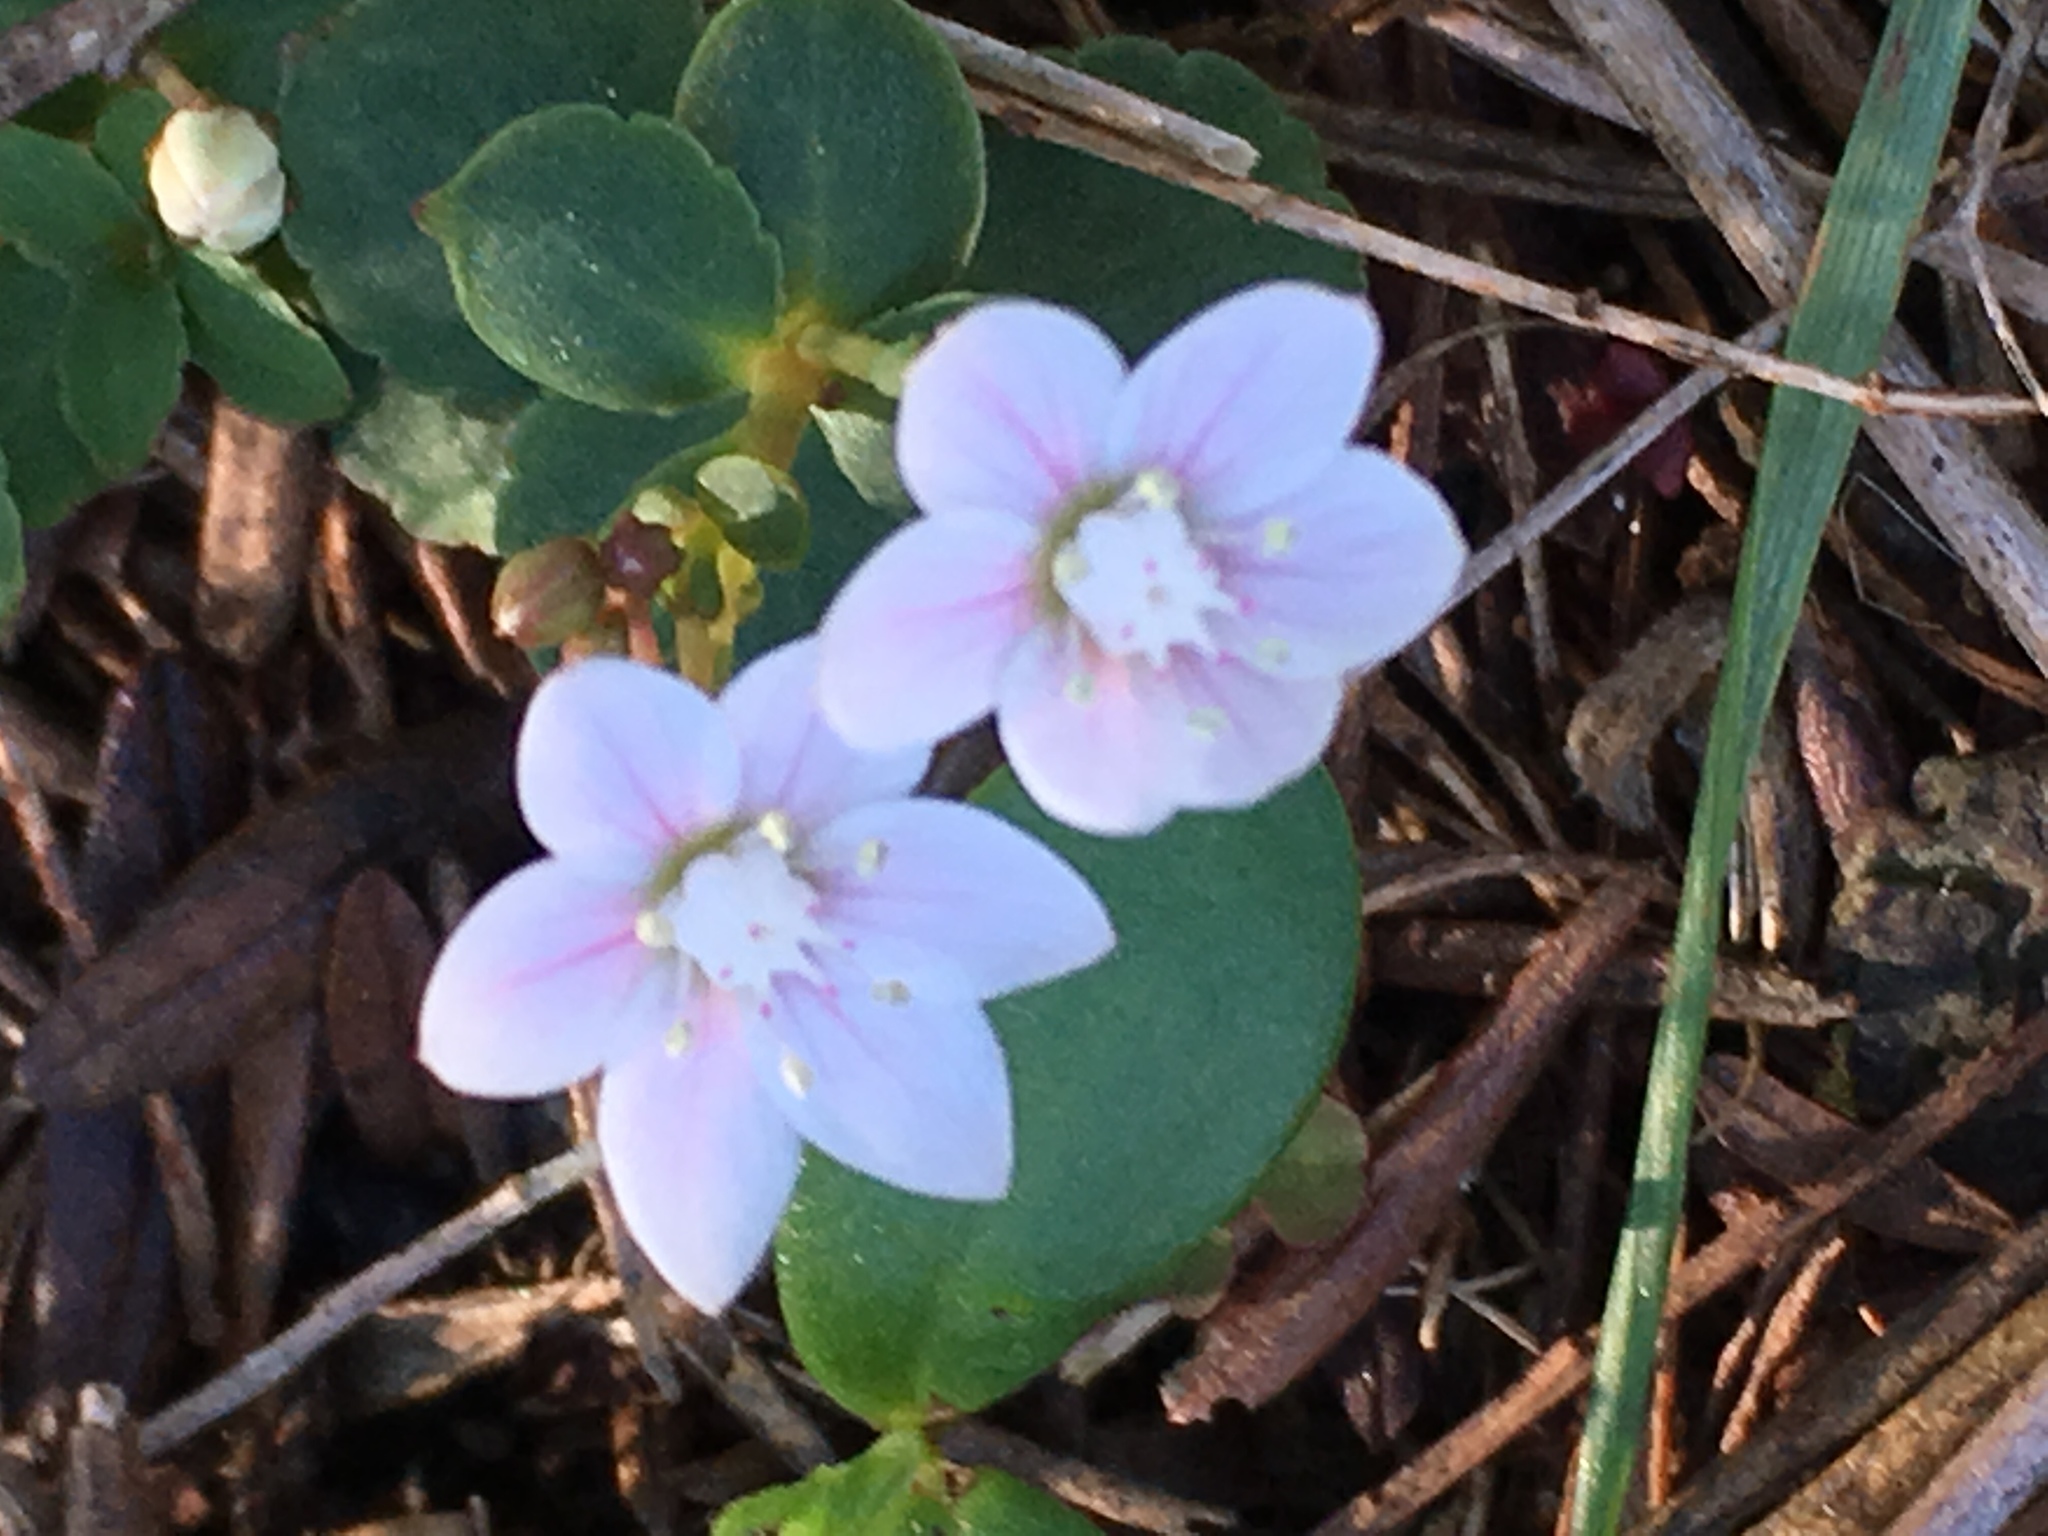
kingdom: Plantae
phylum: Tracheophyta
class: Magnoliopsida
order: Saxifragales
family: Crassulaceae
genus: Crassula
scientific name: Crassula capensis
